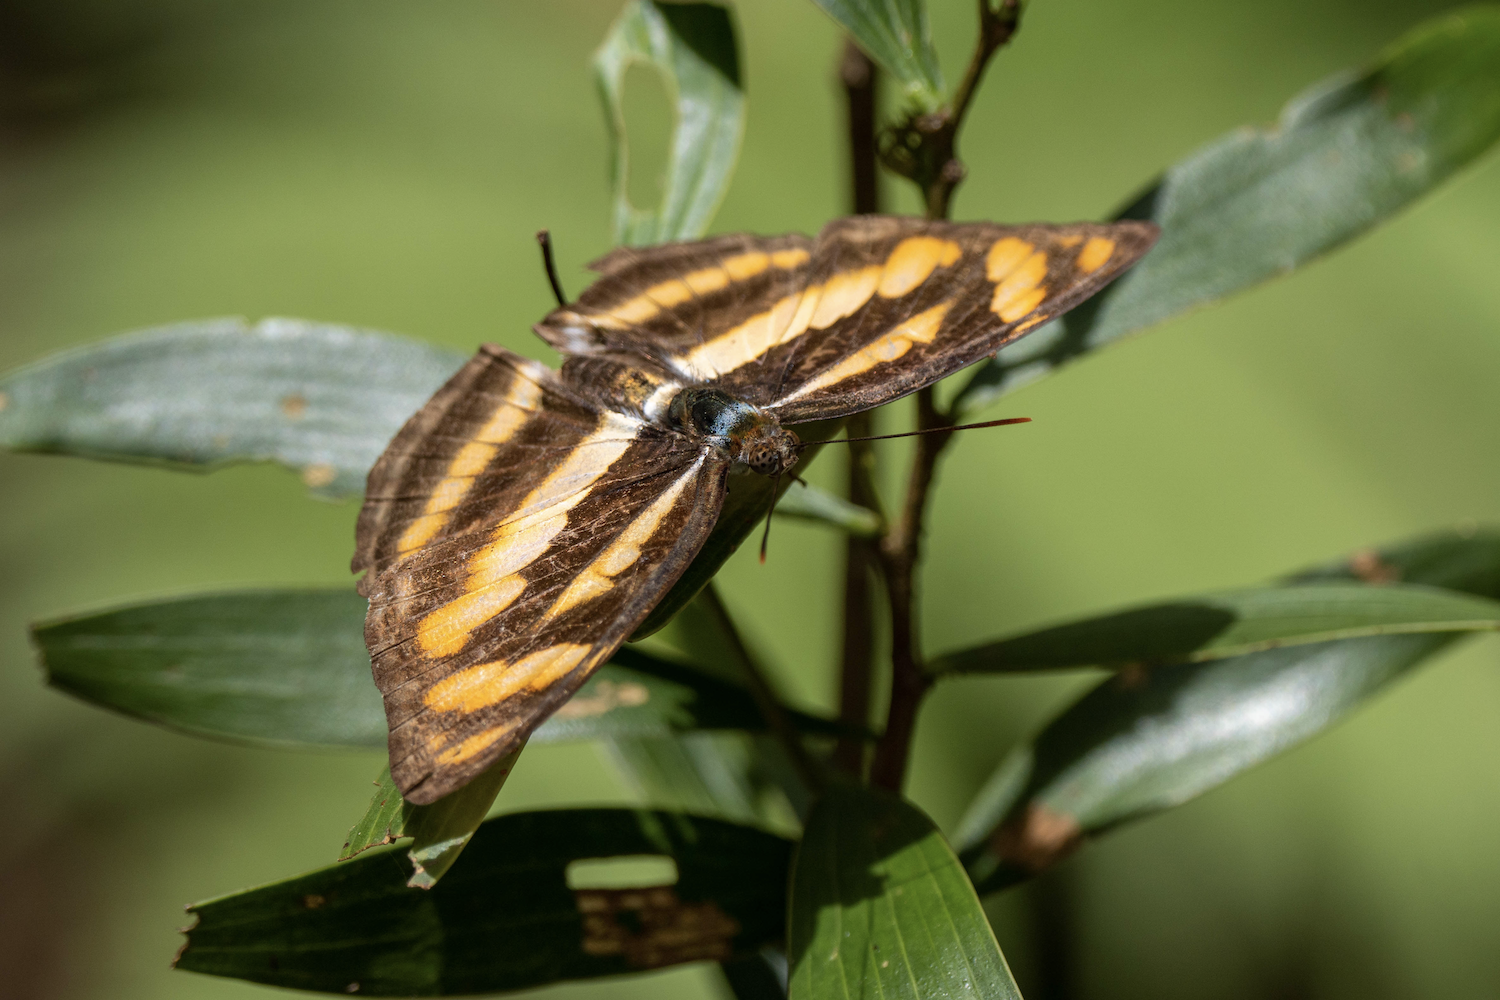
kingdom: Animalia
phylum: Arthropoda
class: Insecta
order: Lepidoptera
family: Nymphalidae
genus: Parathyma
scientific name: Parathyma nefte
